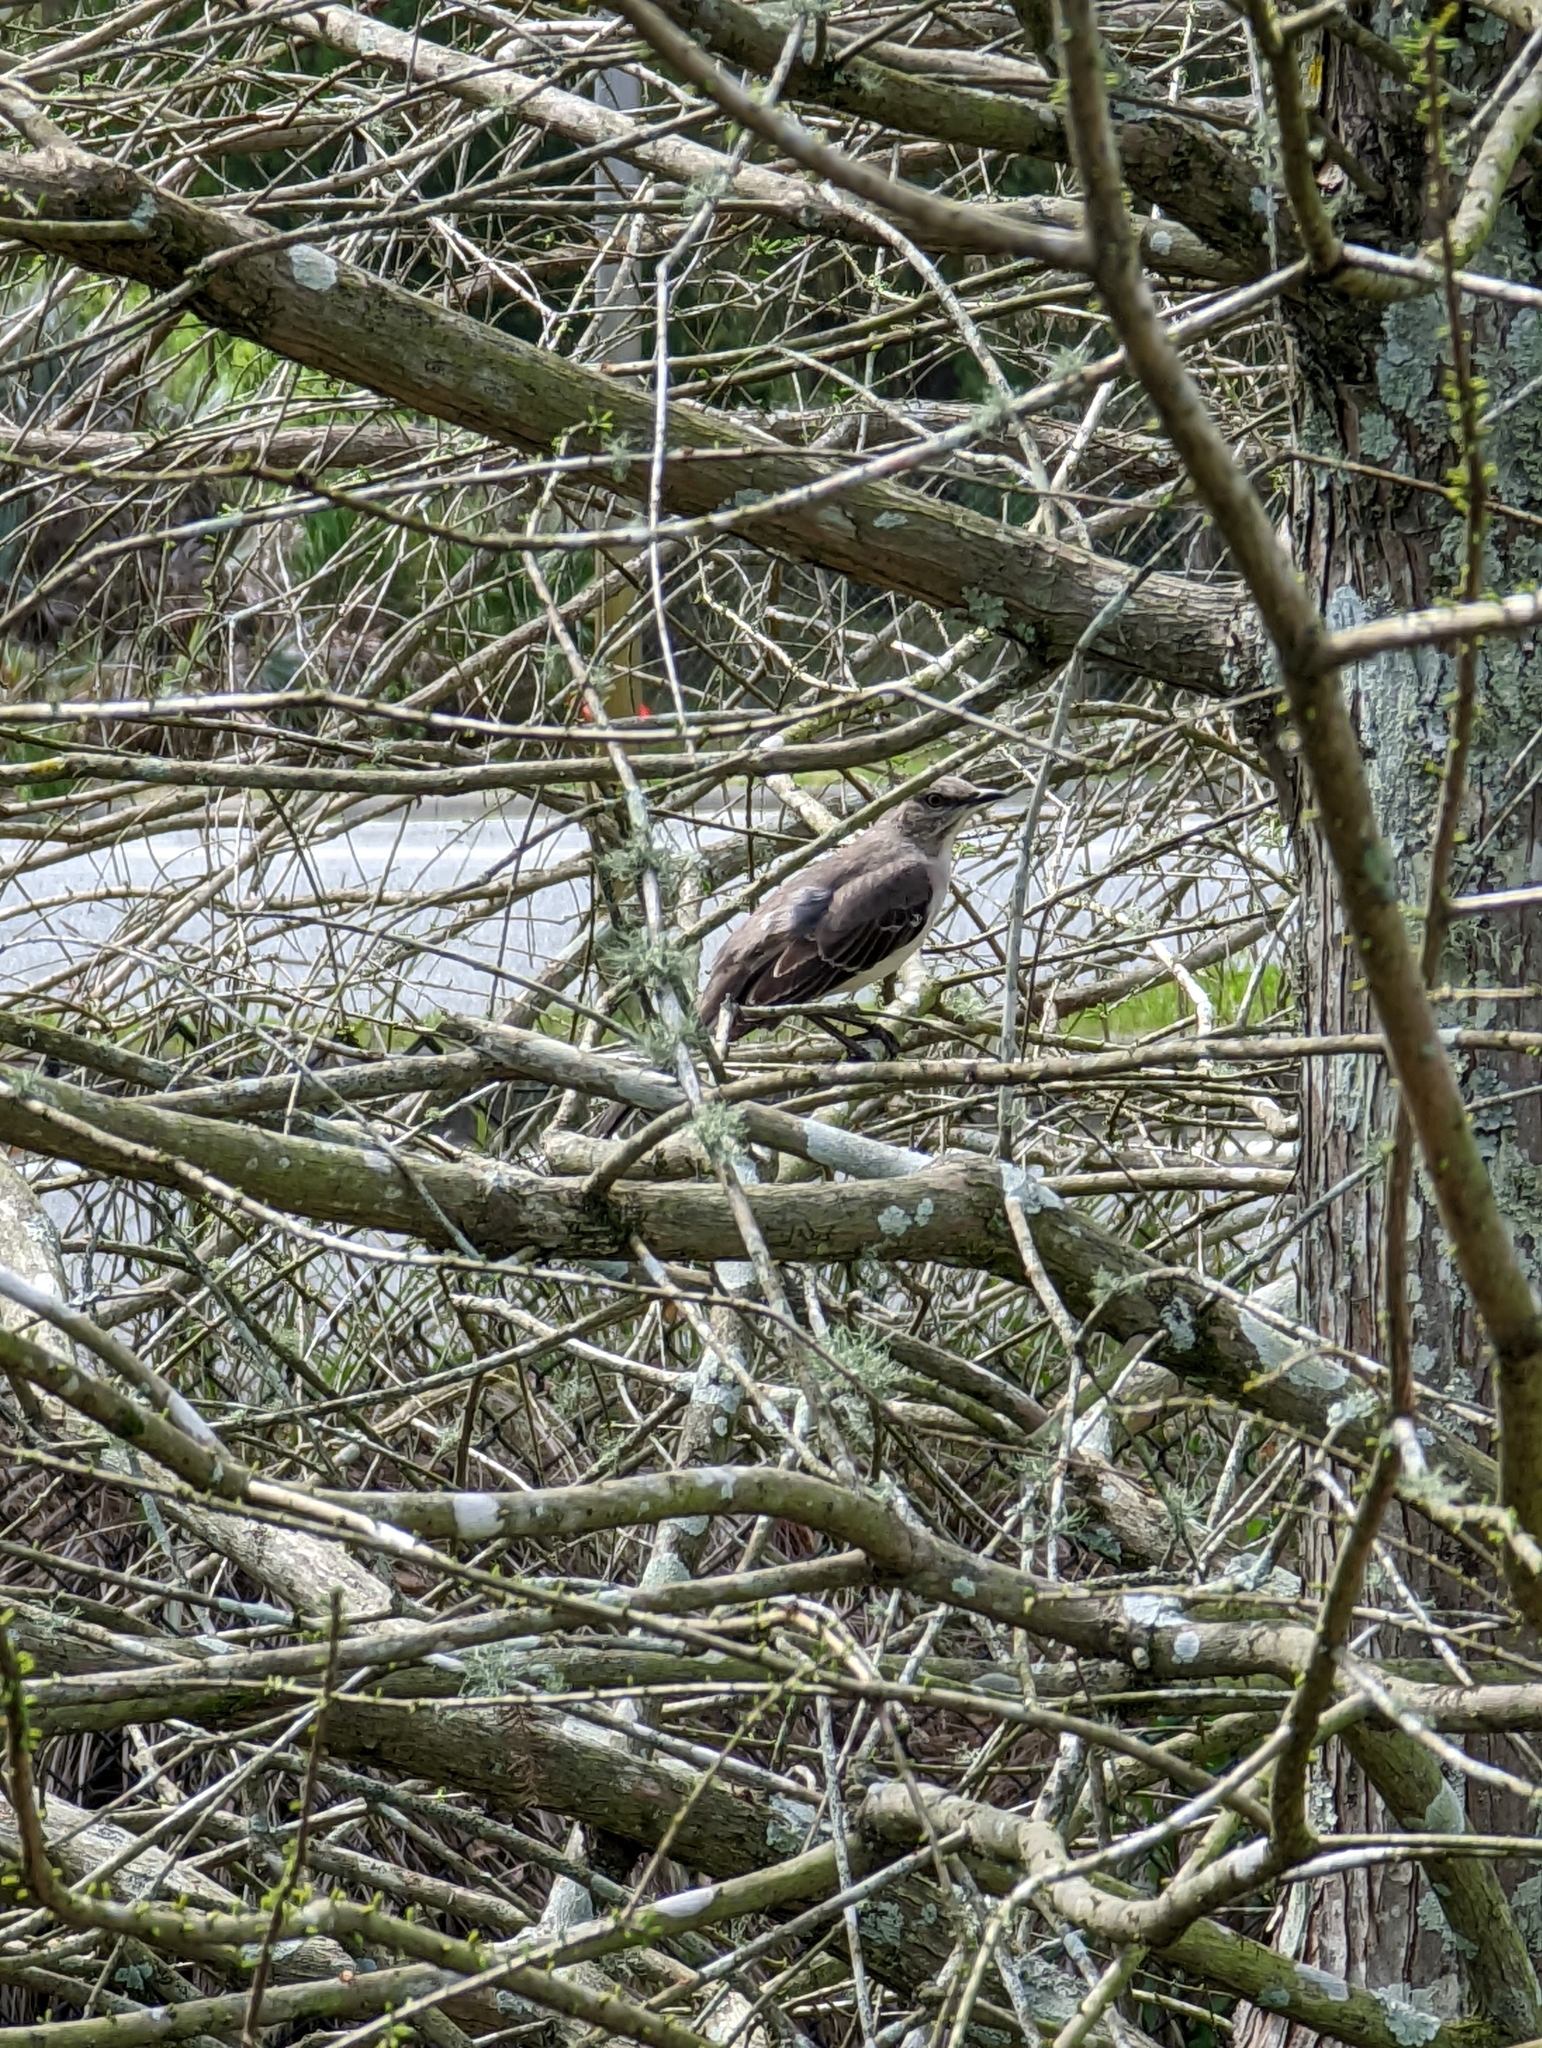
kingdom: Animalia
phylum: Chordata
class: Aves
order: Passeriformes
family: Mimidae
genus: Mimus
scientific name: Mimus polyglottos
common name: Northern mockingbird
